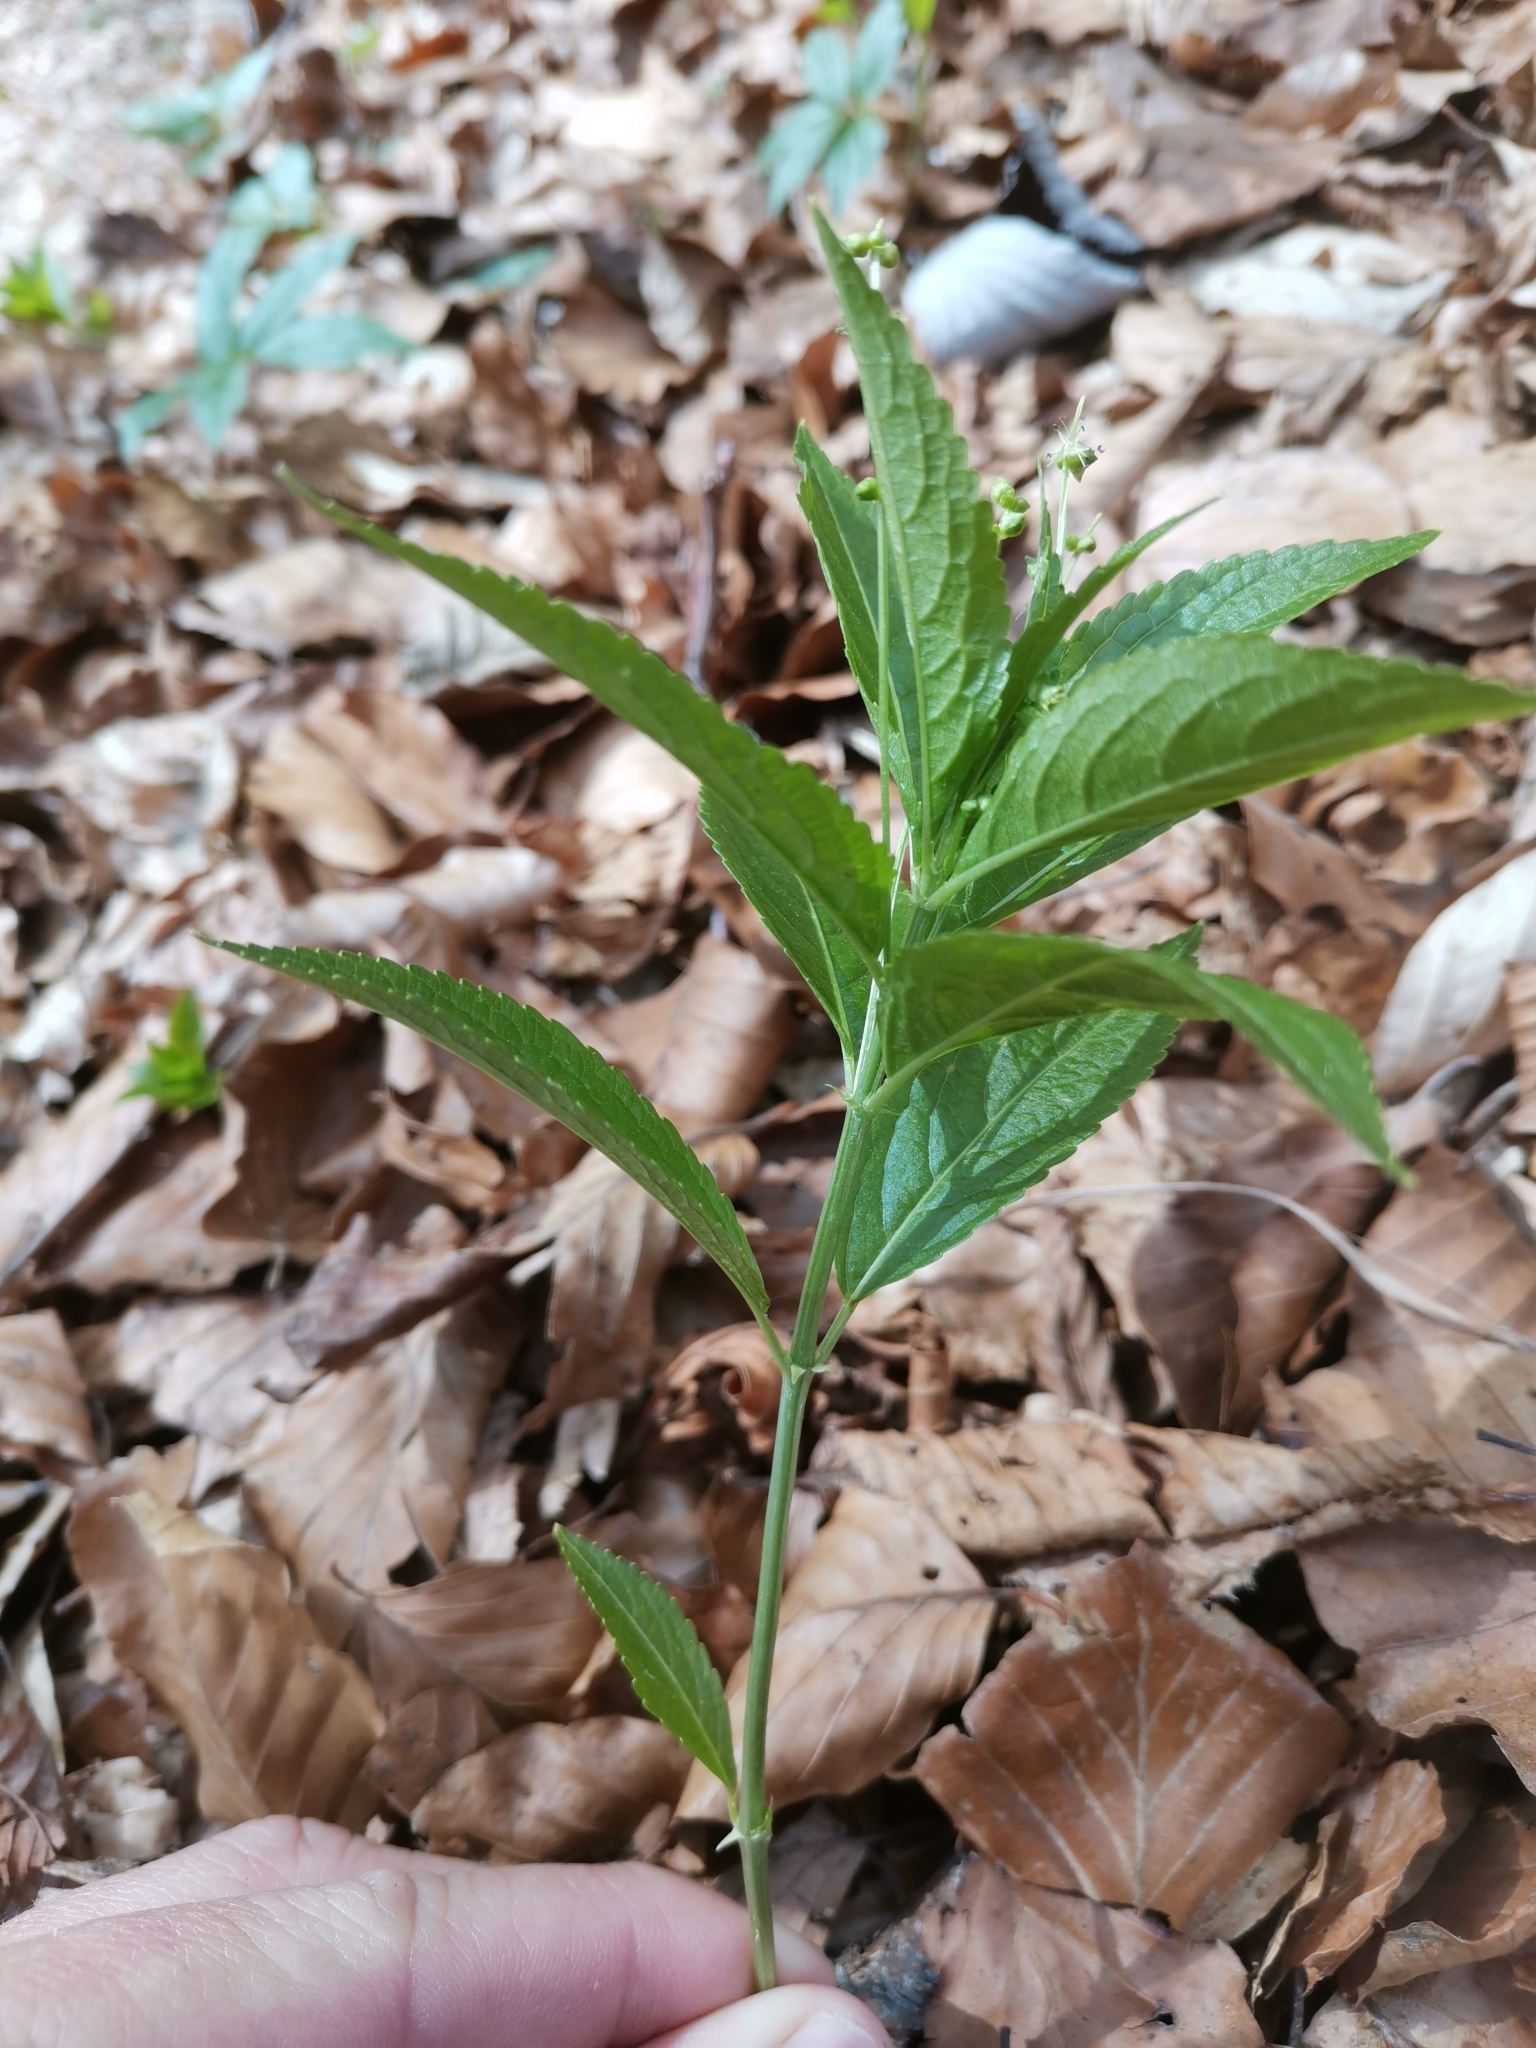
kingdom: Plantae
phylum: Tracheophyta
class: Magnoliopsida
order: Malpighiales
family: Euphorbiaceae
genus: Mercurialis
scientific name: Mercurialis perennis
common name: Dog mercury
